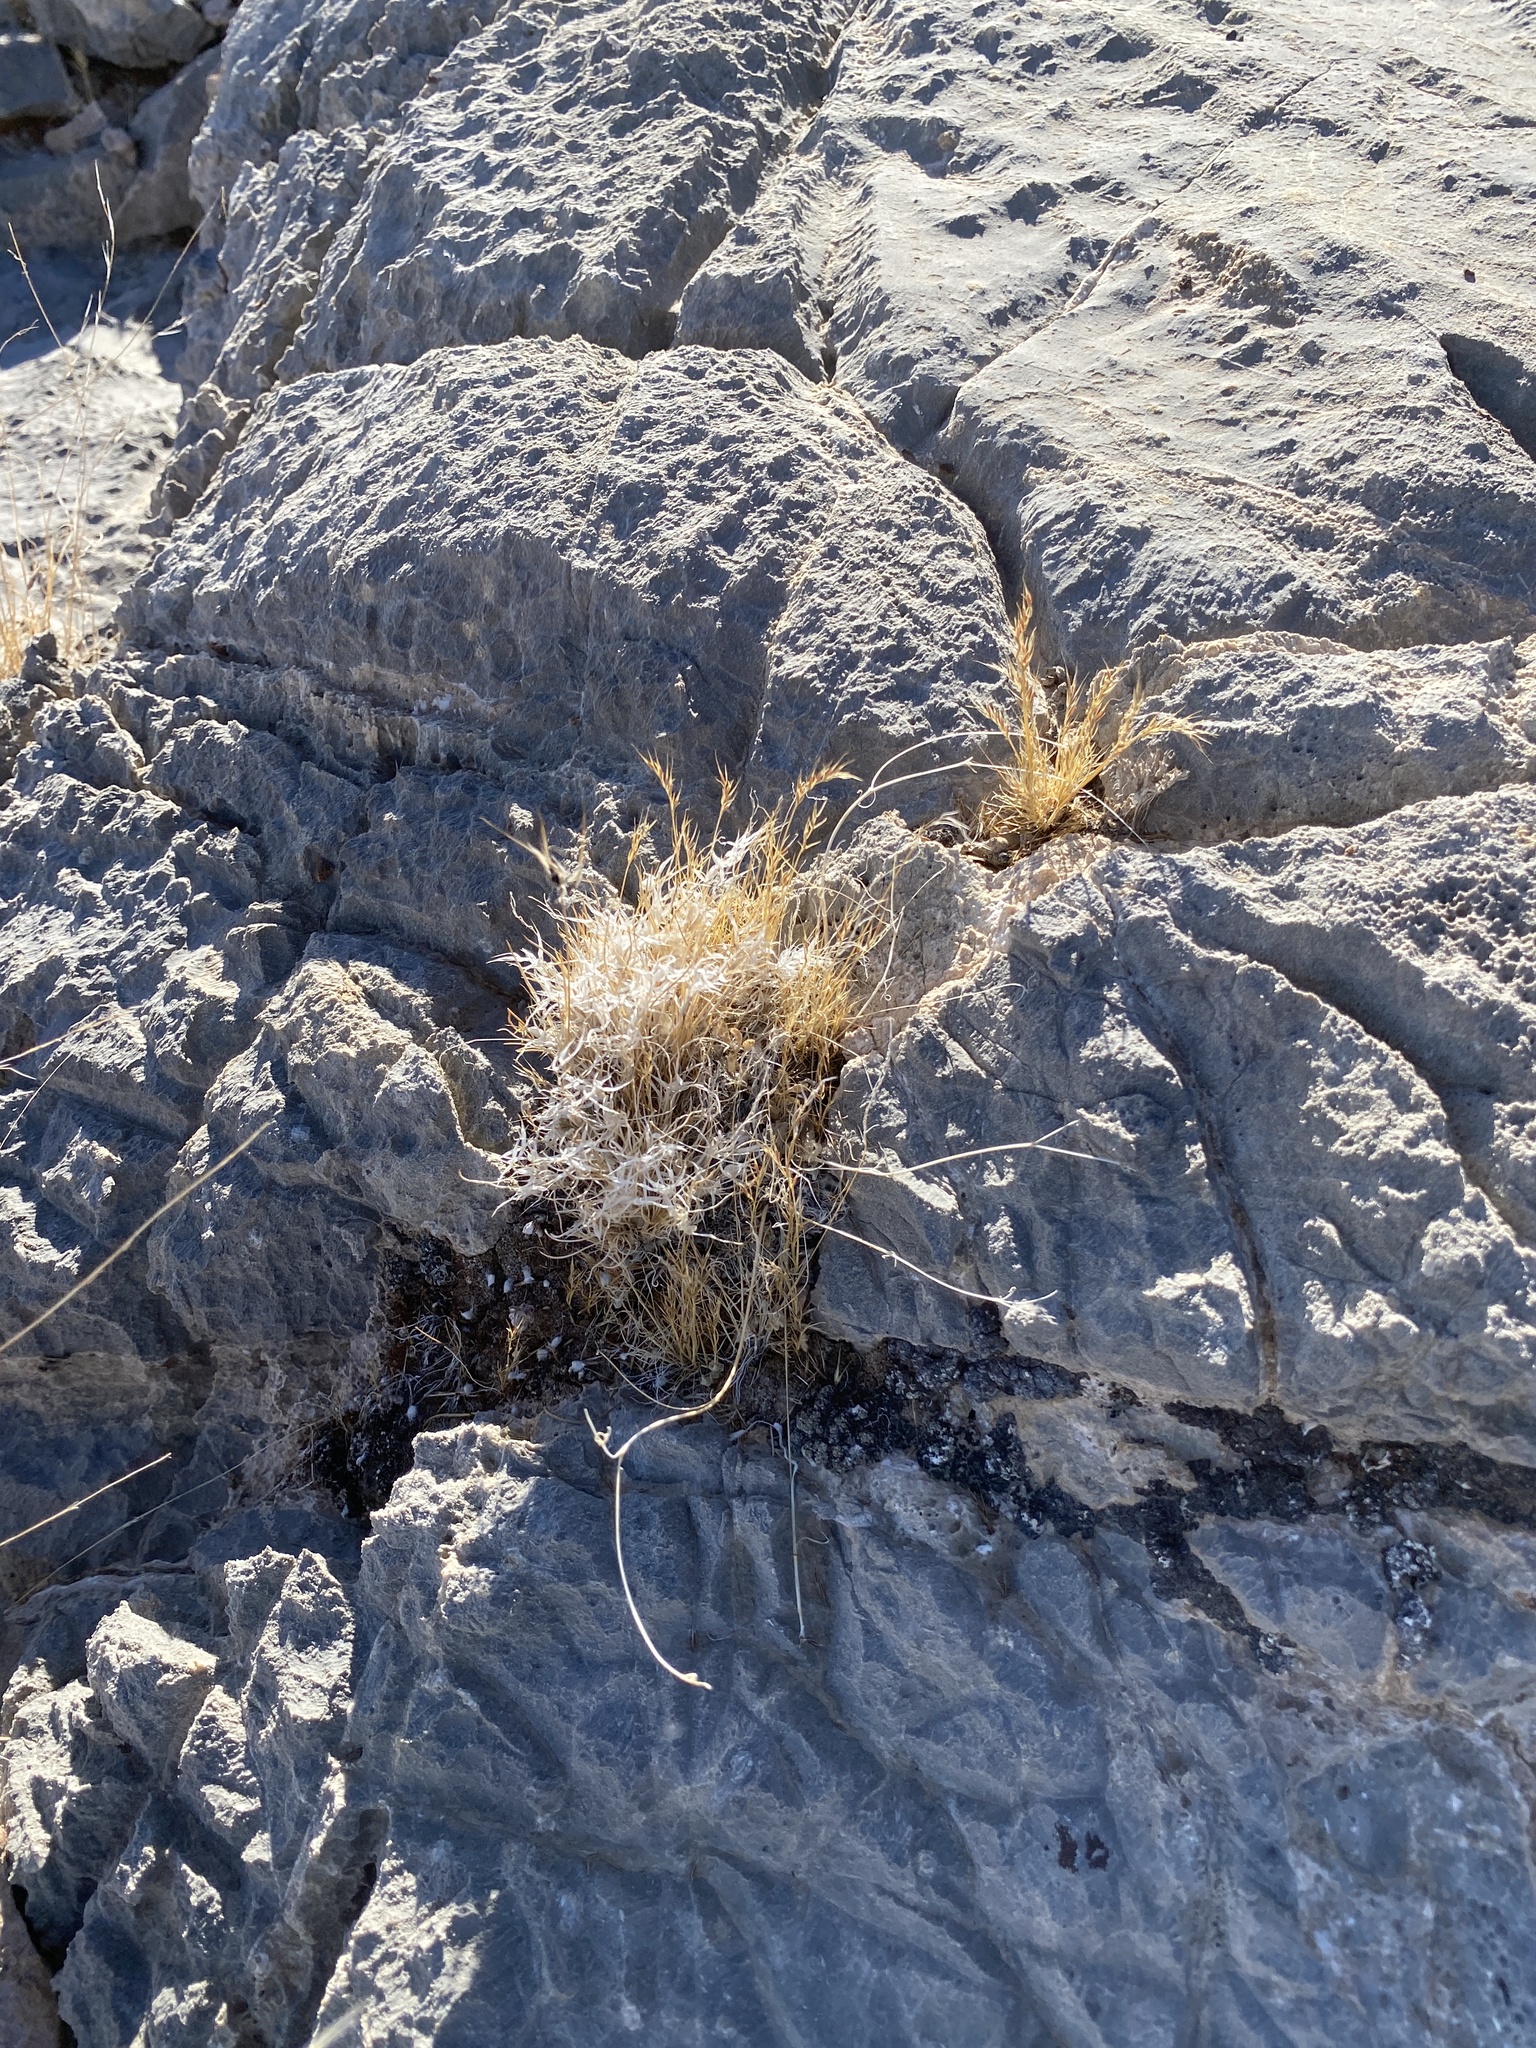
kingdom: Plantae
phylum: Tracheophyta
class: Liliopsida
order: Poales
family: Poaceae
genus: Dasyochloa
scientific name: Dasyochloa pulchella
